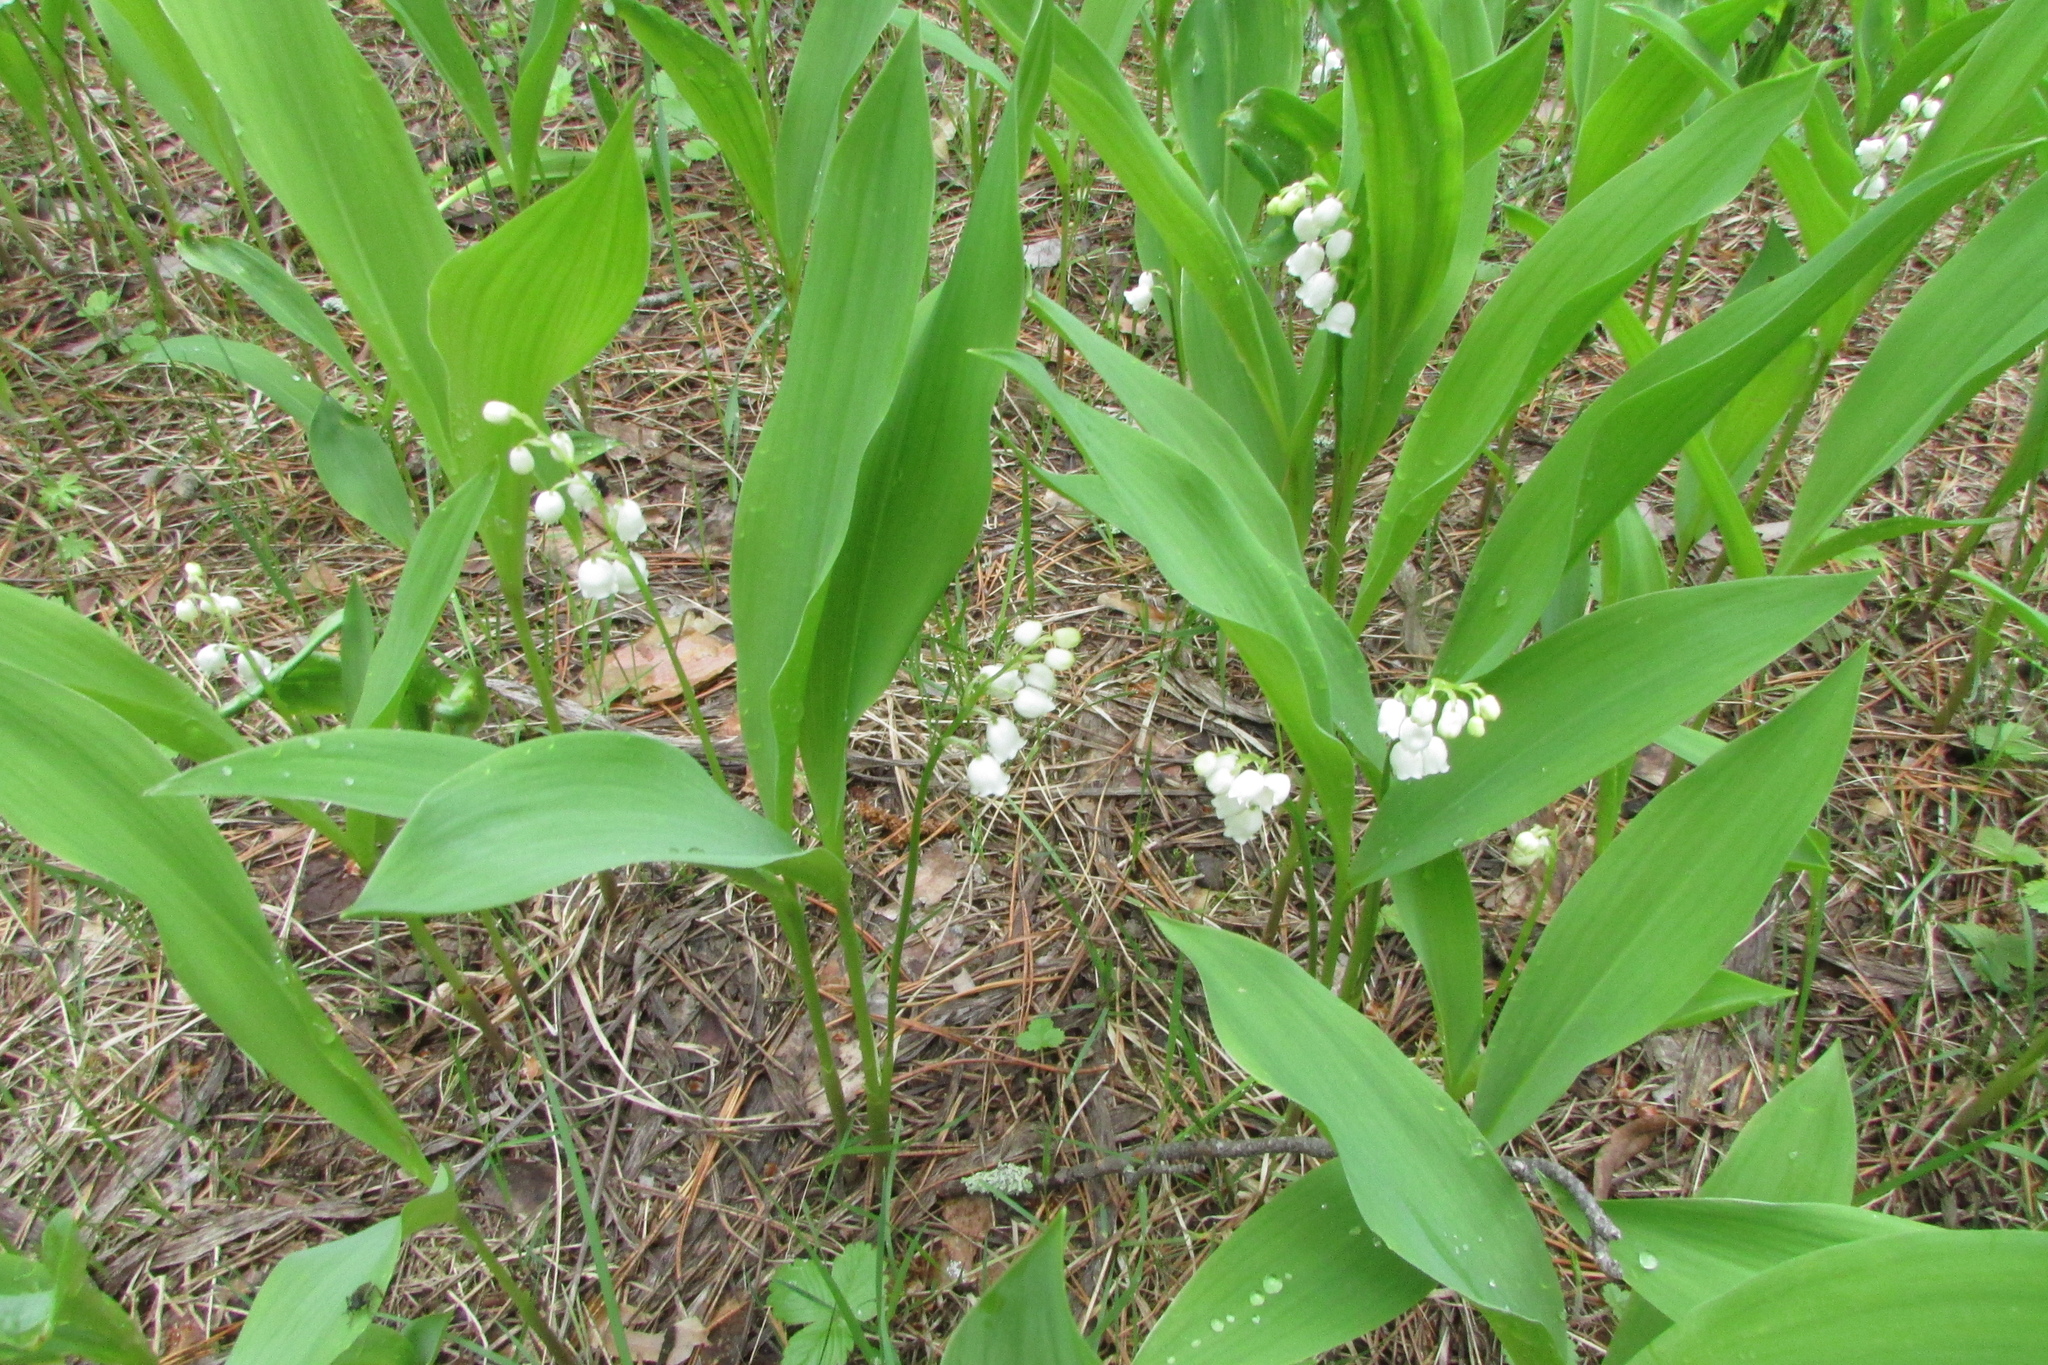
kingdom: Plantae
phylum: Tracheophyta
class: Liliopsida
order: Asparagales
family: Asparagaceae
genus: Convallaria
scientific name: Convallaria majalis
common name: Lily-of-the-valley
